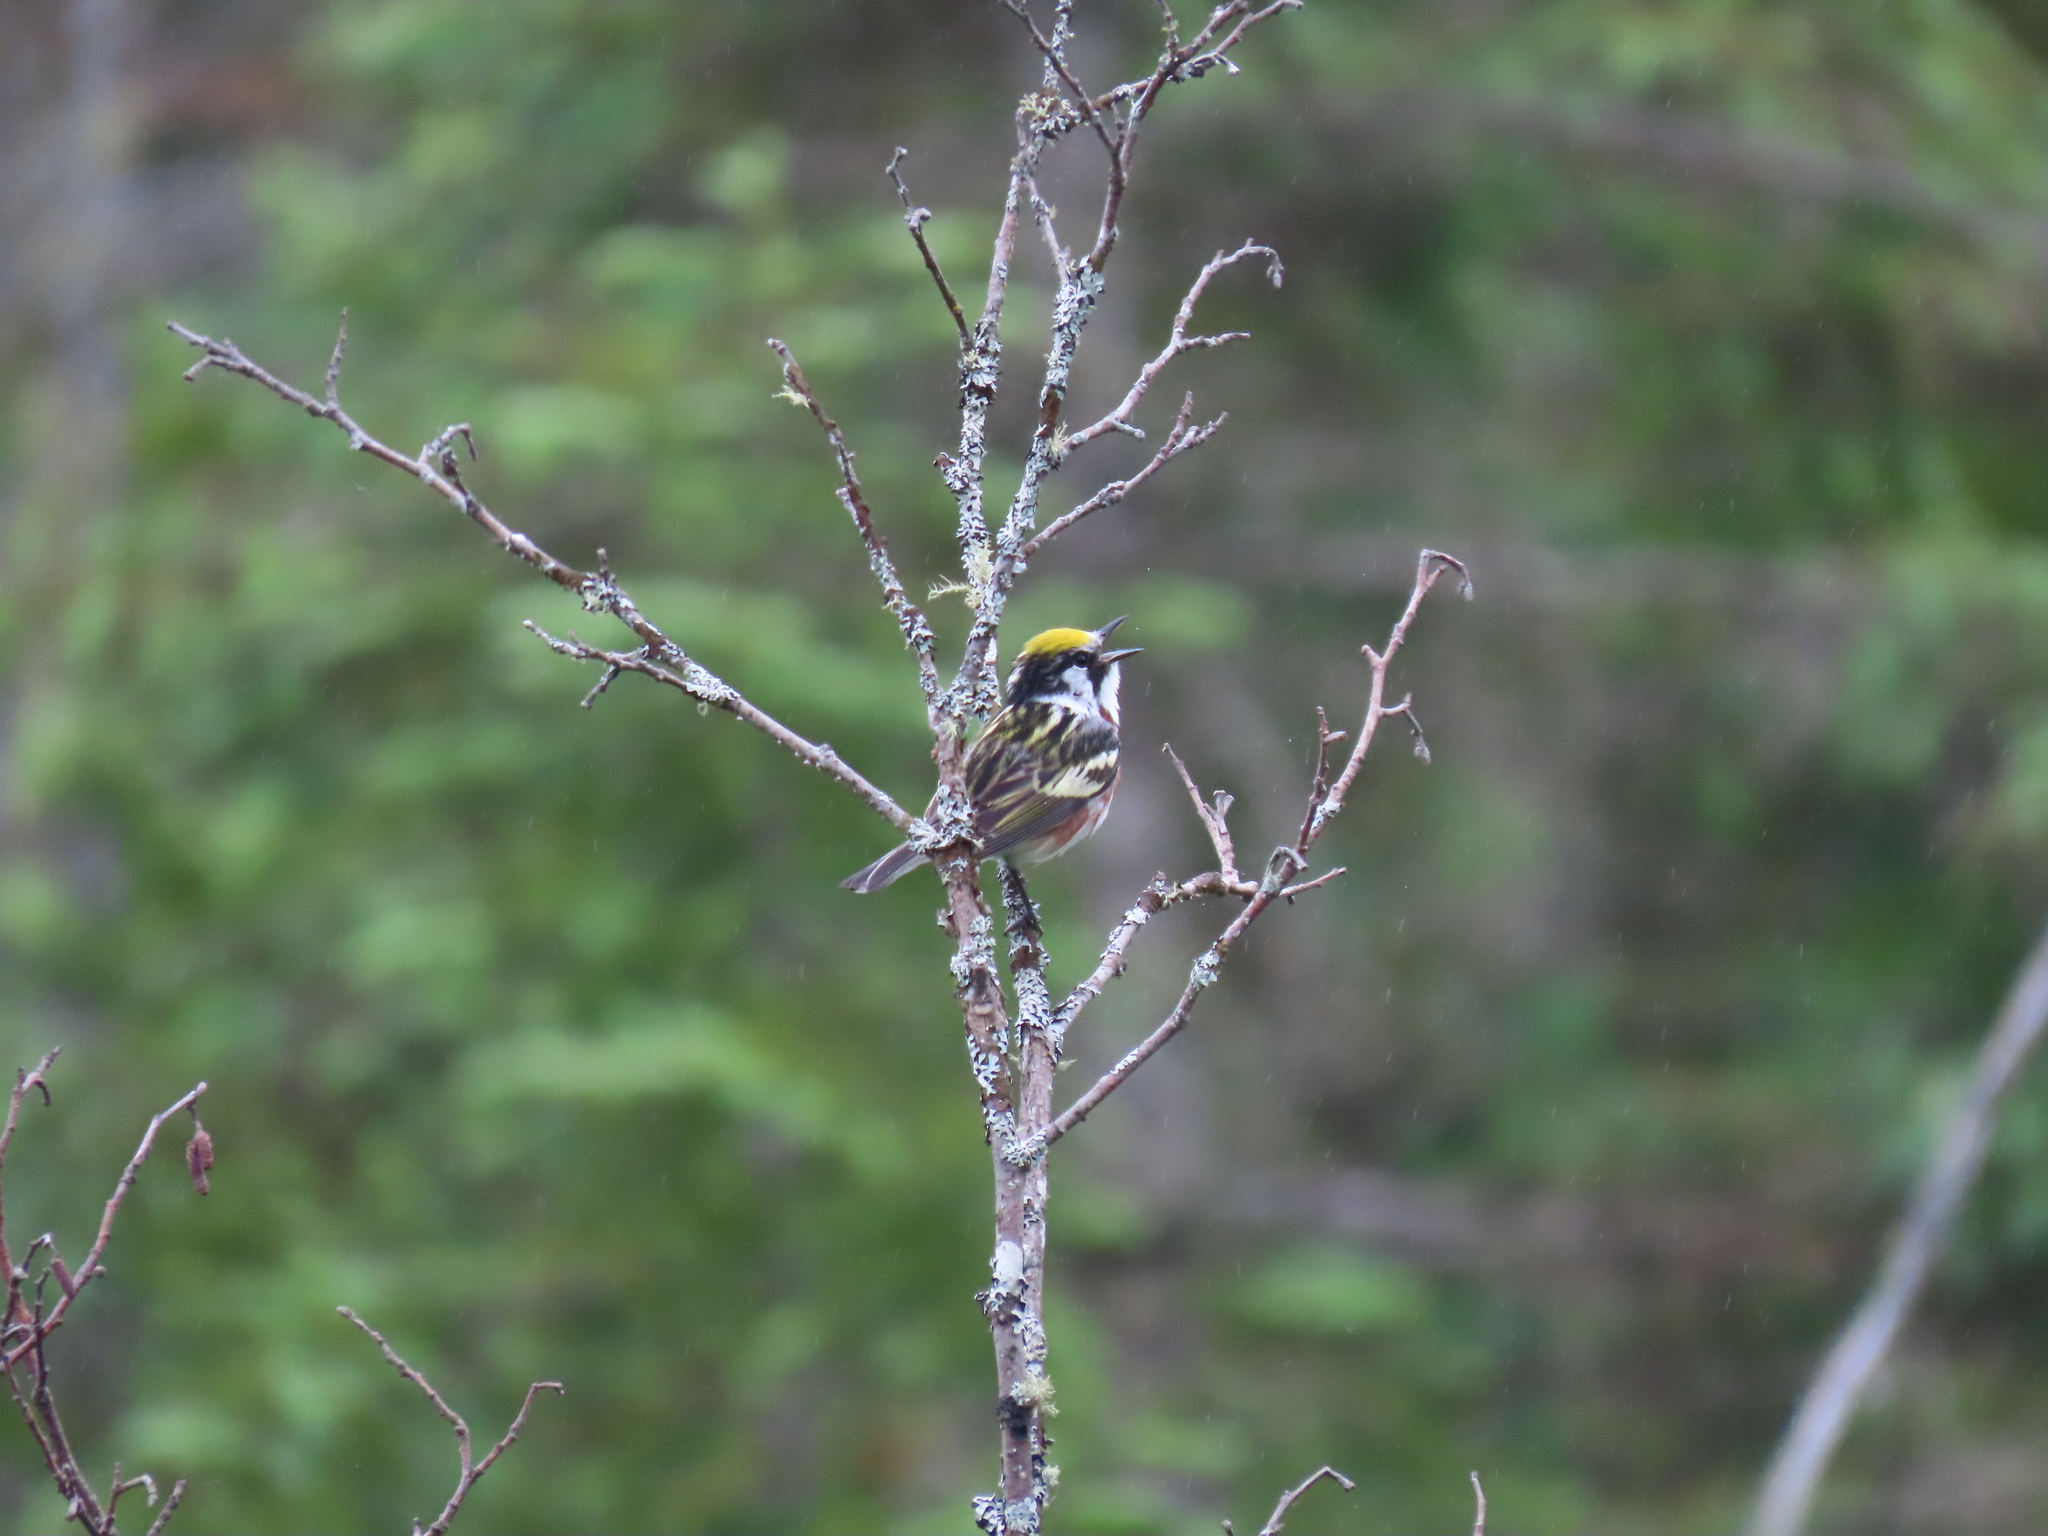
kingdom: Animalia
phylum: Chordata
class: Aves
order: Passeriformes
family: Parulidae
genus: Setophaga
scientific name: Setophaga pensylvanica
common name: Chestnut-sided warbler
